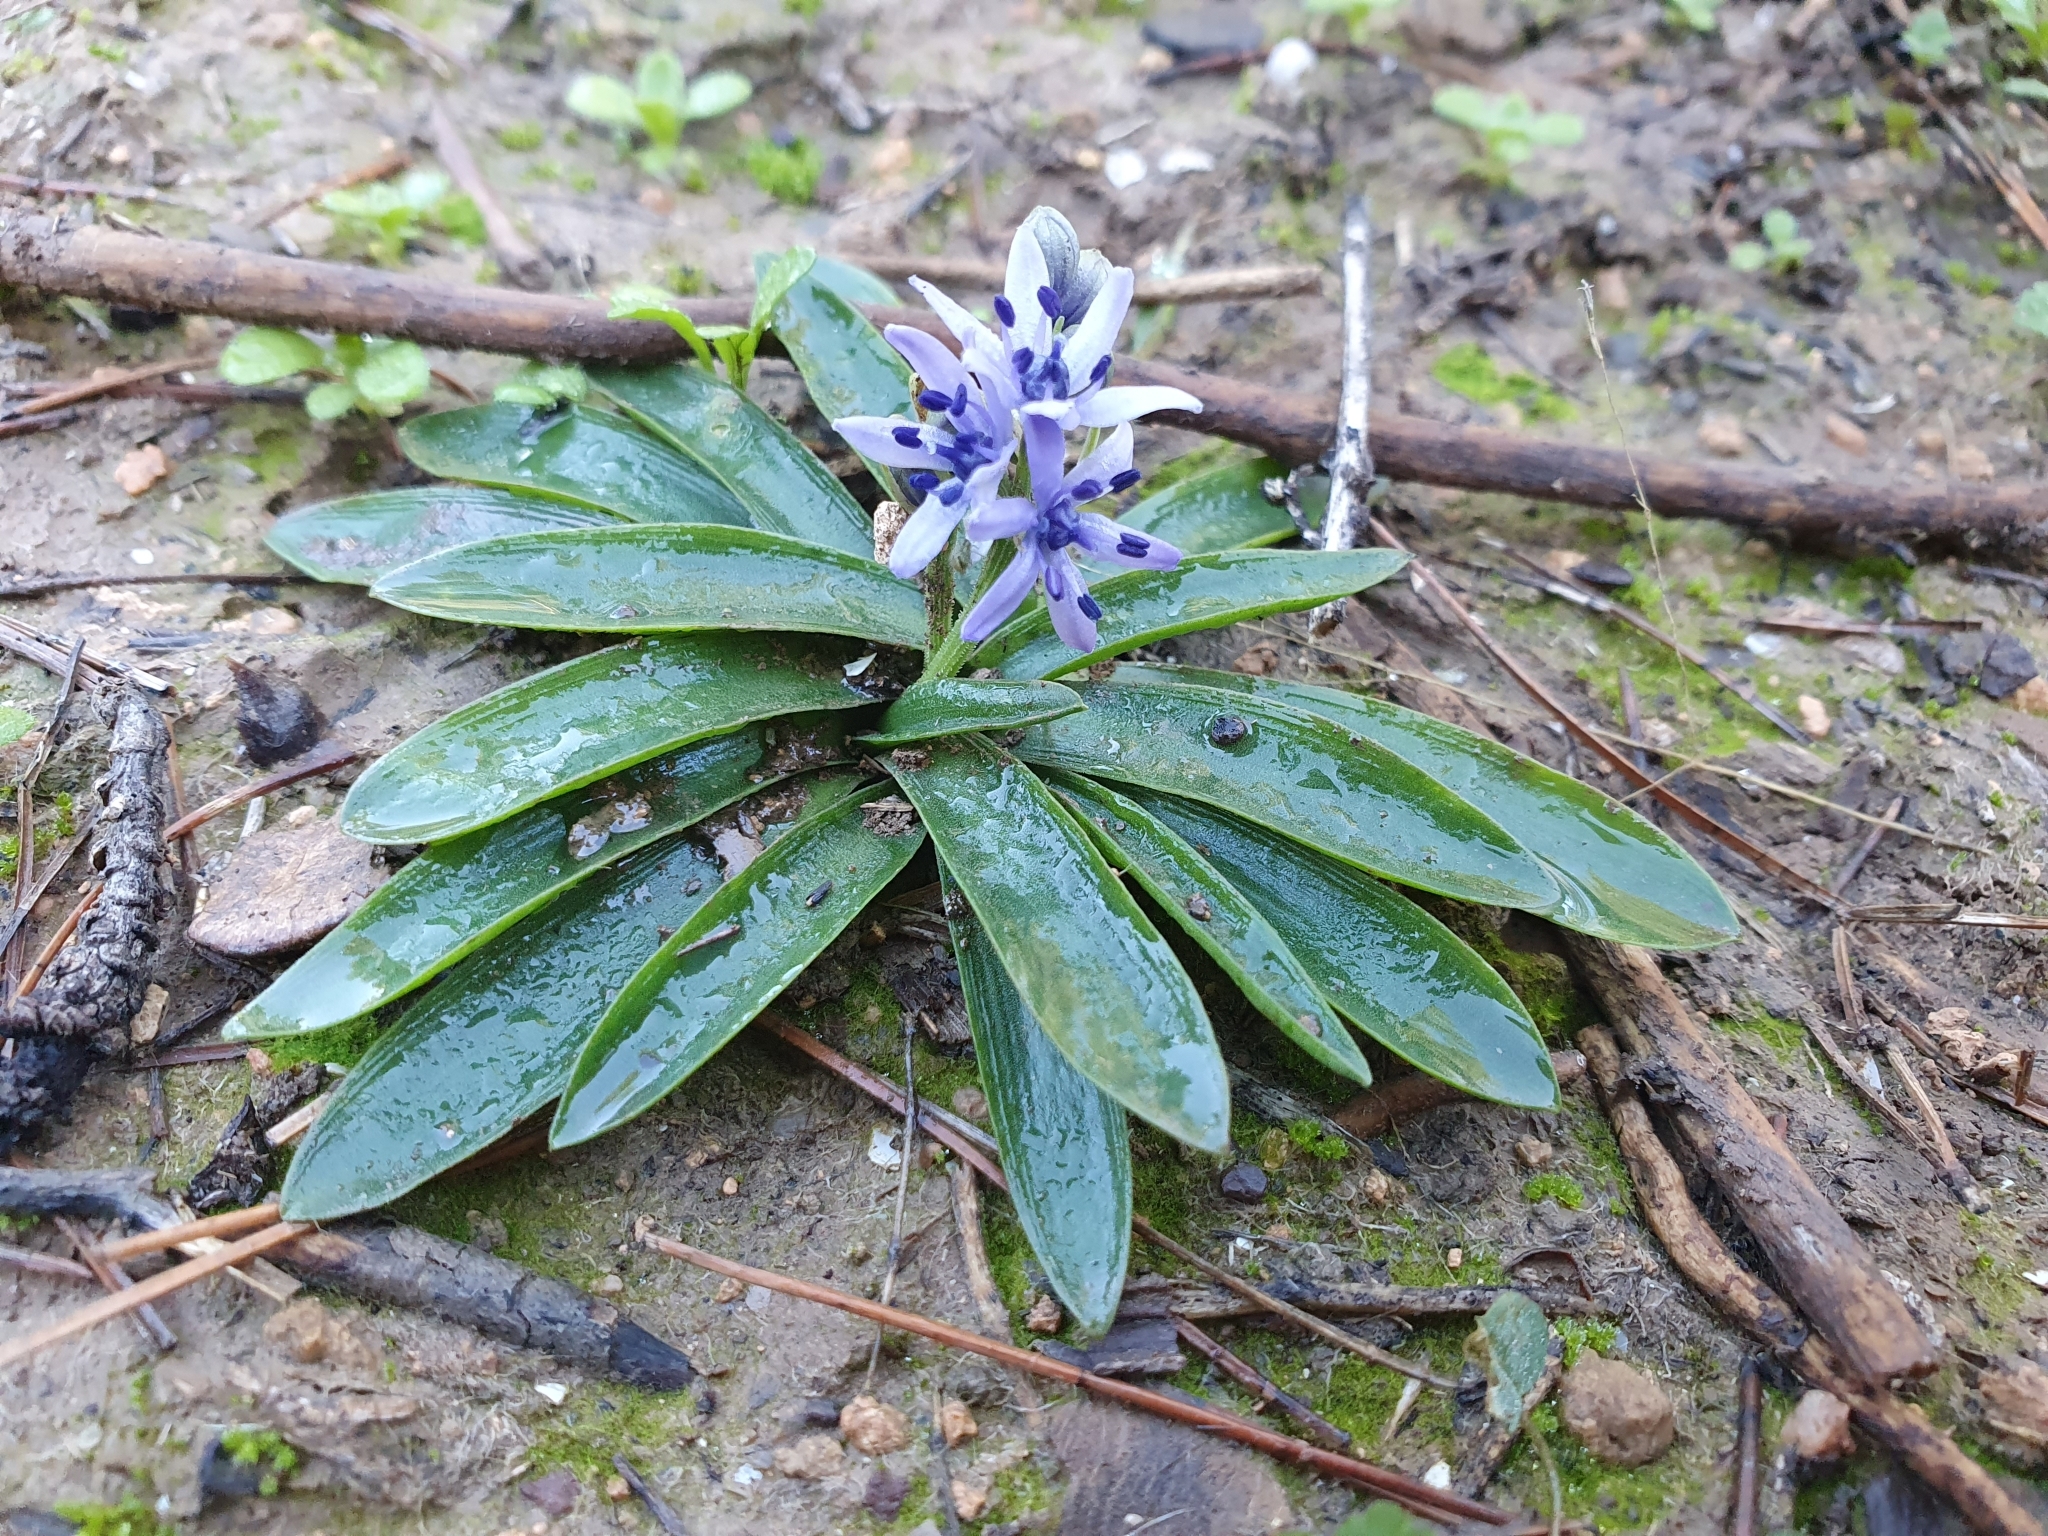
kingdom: Plantae
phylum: Tracheophyta
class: Liliopsida
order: Asparagales
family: Asparagaceae
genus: Hyacinthoides
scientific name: Hyacinthoides lingulata
